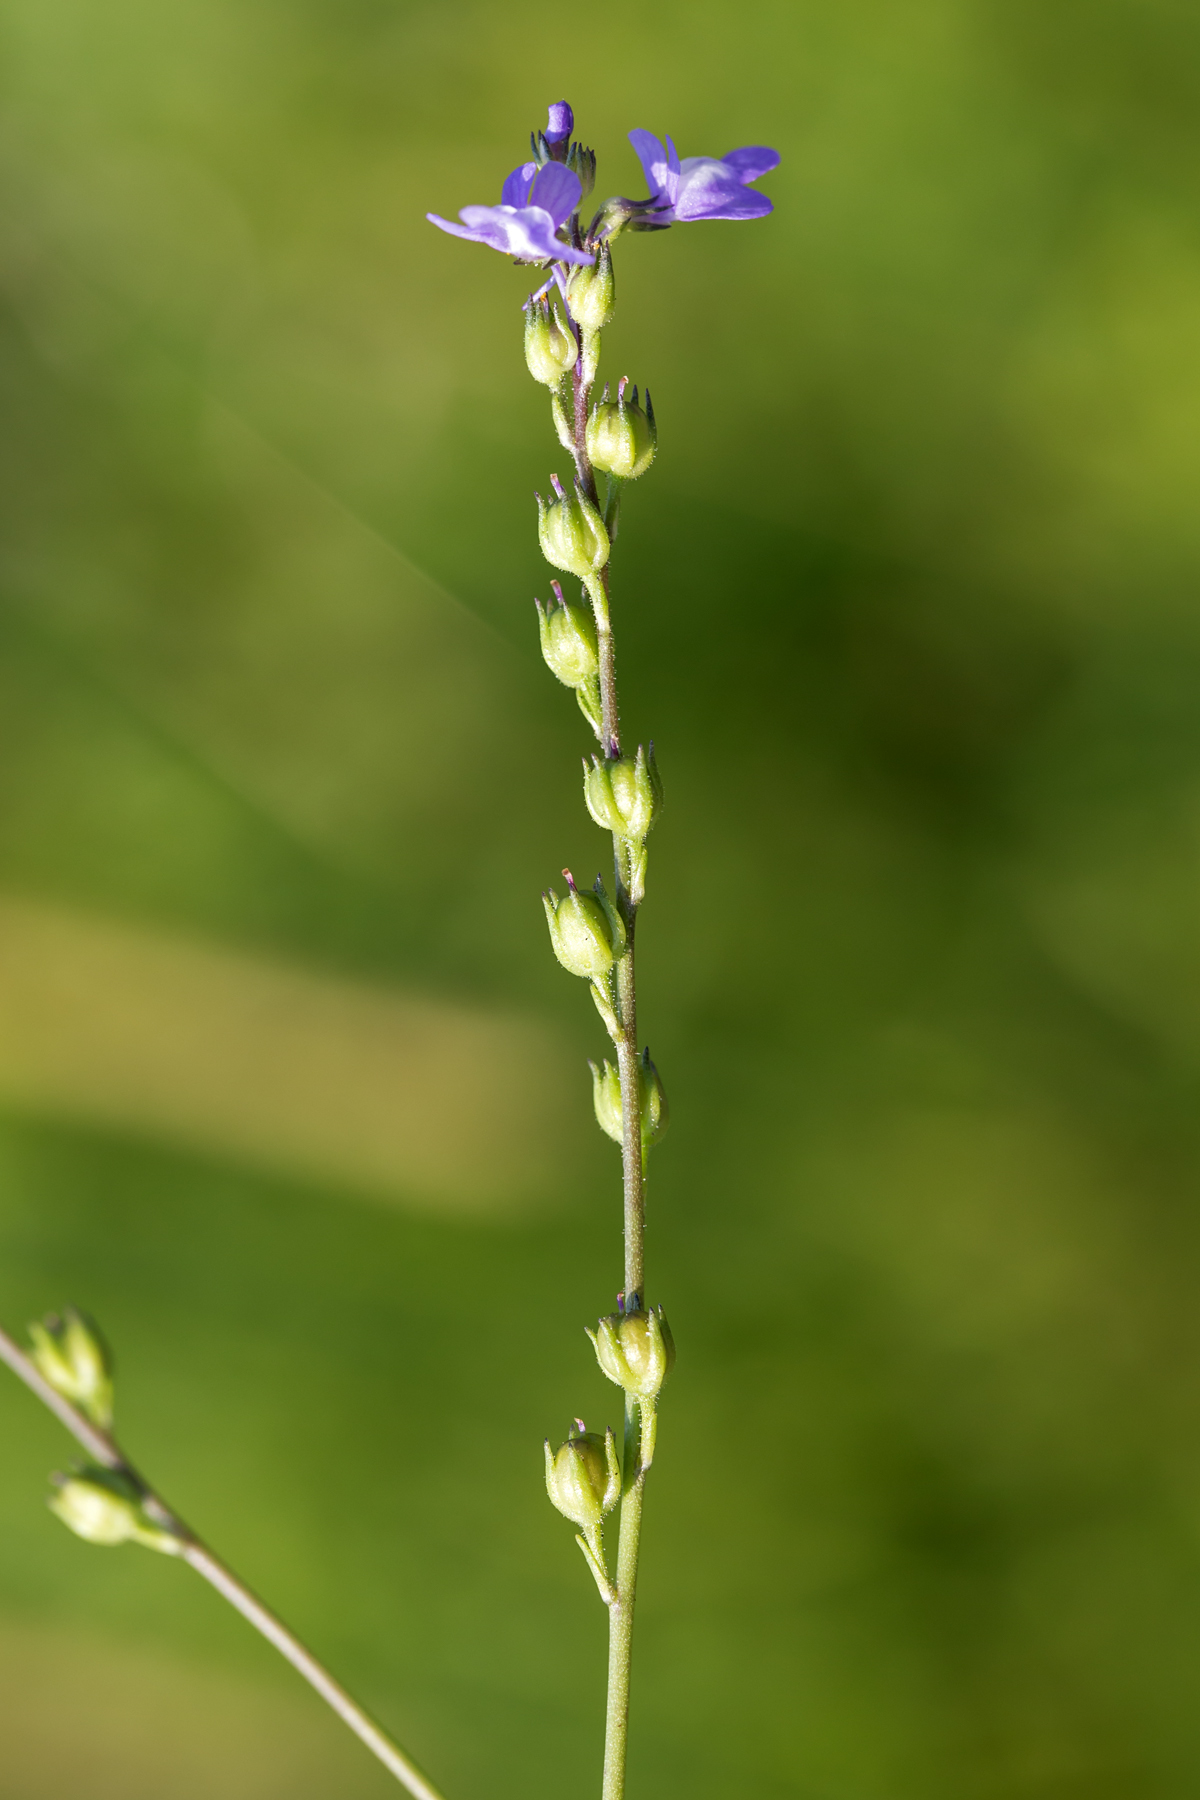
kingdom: Plantae
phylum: Tracheophyta
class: Magnoliopsida
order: Lamiales
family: Plantaginaceae
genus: Nuttallanthus
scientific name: Nuttallanthus canadensis
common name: Blue toadflax
